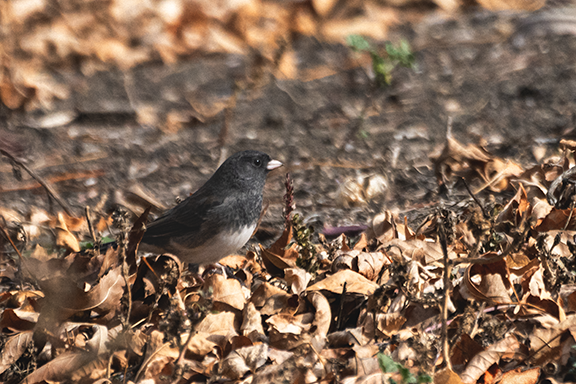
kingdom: Animalia
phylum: Chordata
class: Aves
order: Passeriformes
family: Passerellidae
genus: Junco
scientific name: Junco hyemalis
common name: Dark-eyed junco
